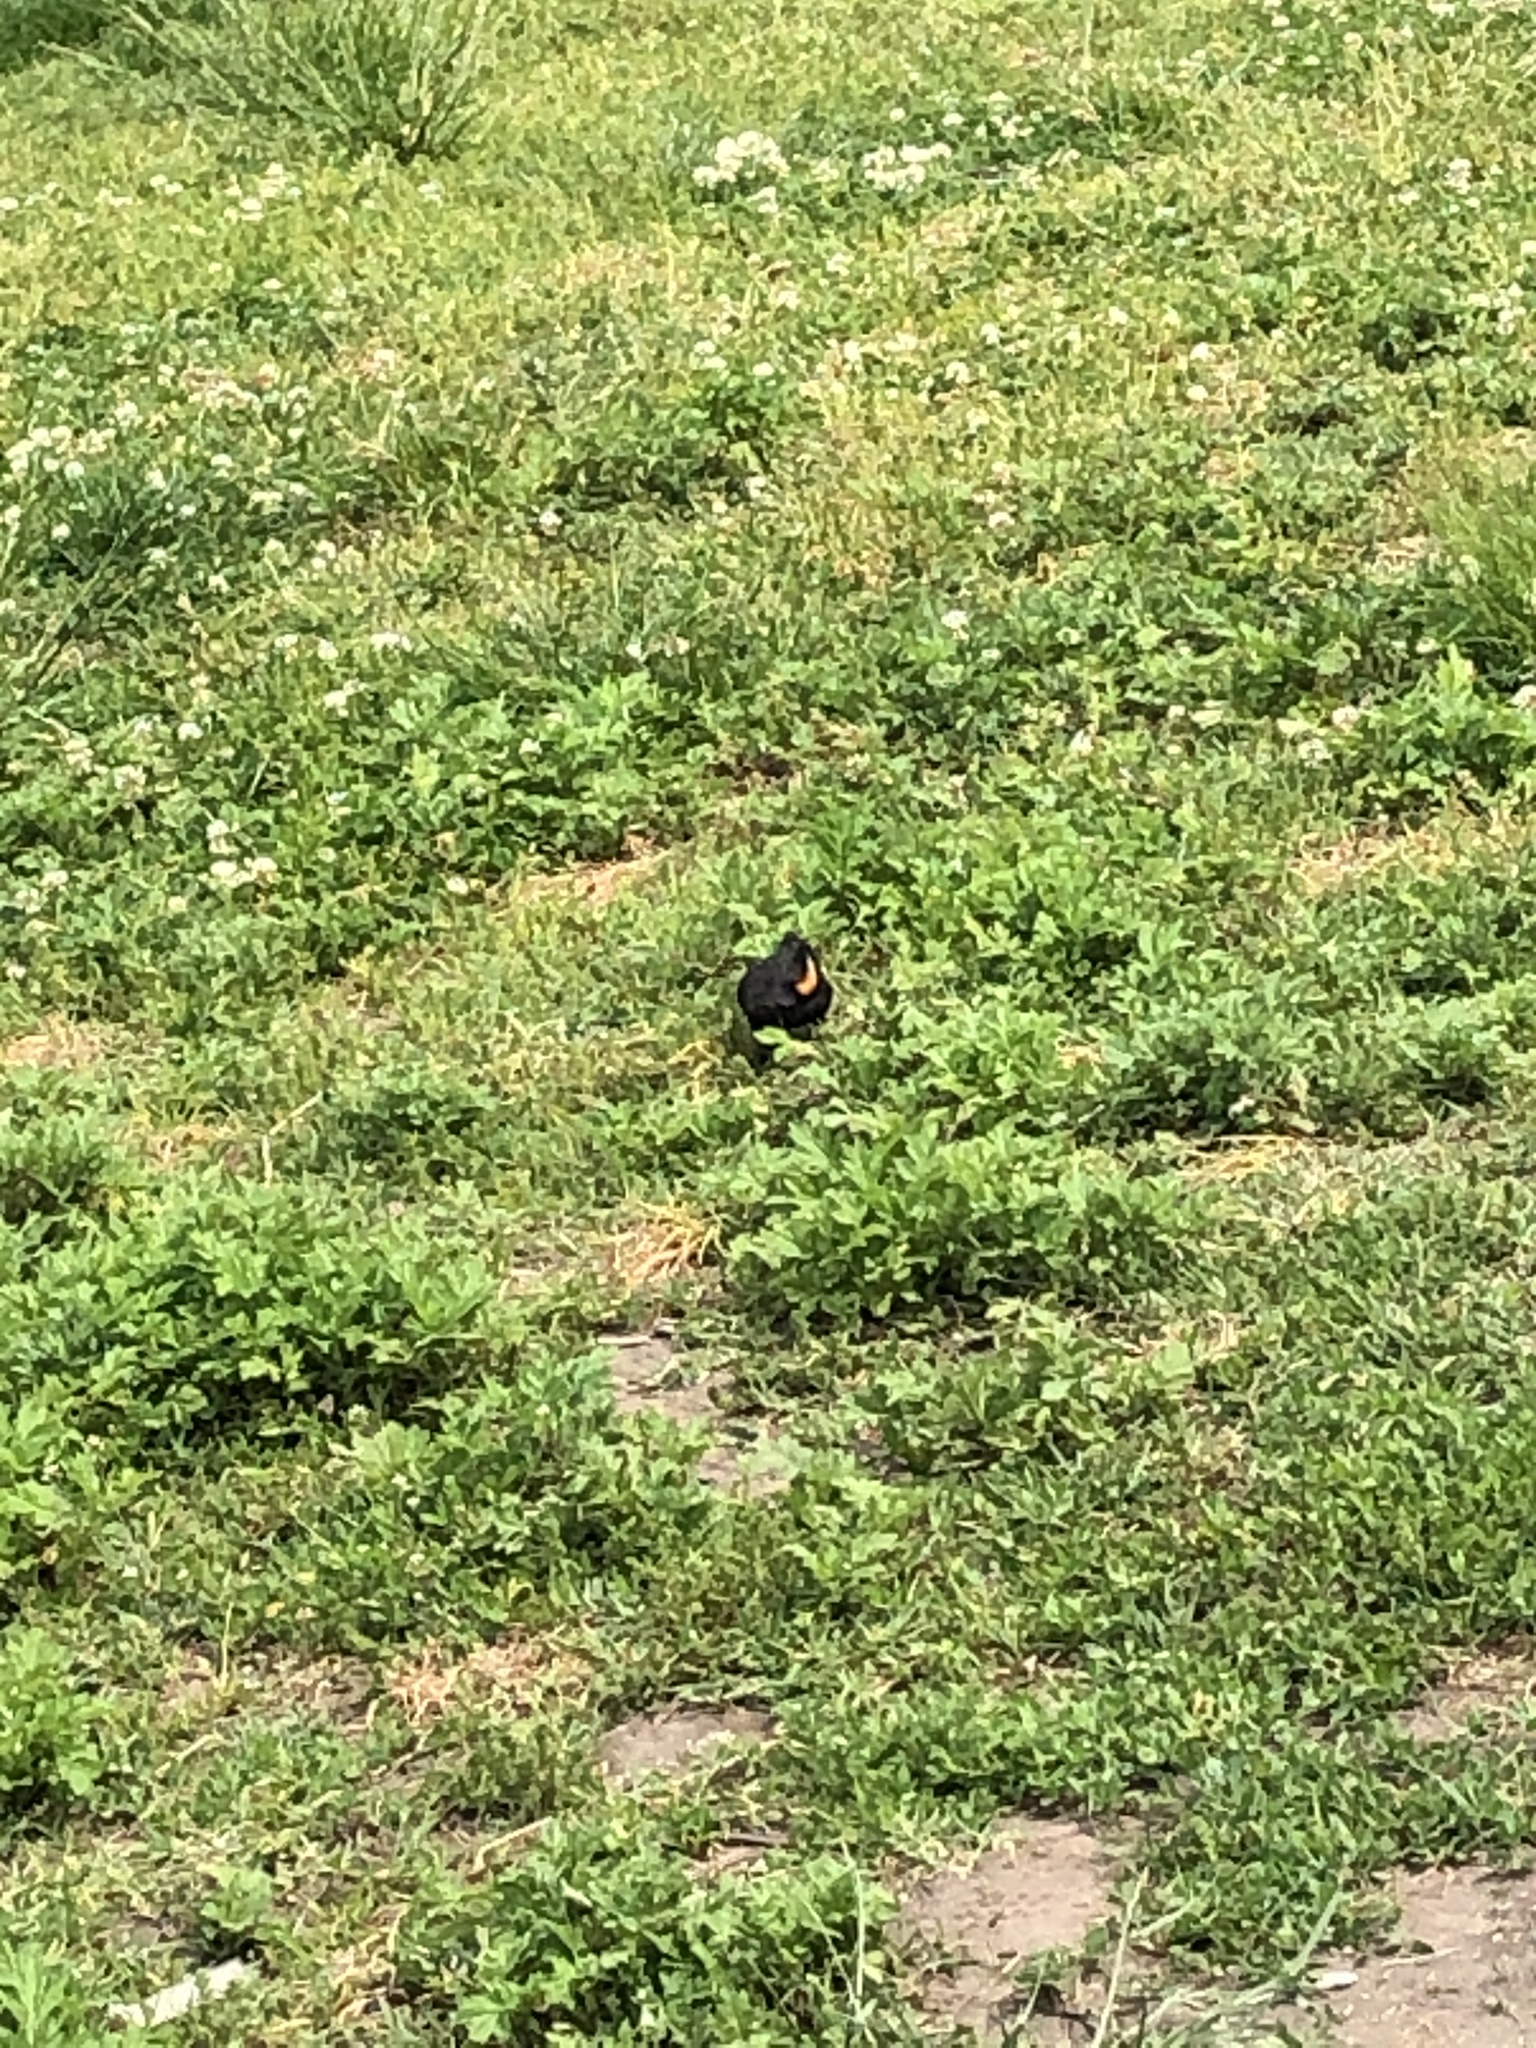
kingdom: Animalia
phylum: Chordata
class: Aves
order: Passeriformes
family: Icteridae
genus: Agelaius
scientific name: Agelaius phoeniceus
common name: Red-winged blackbird
